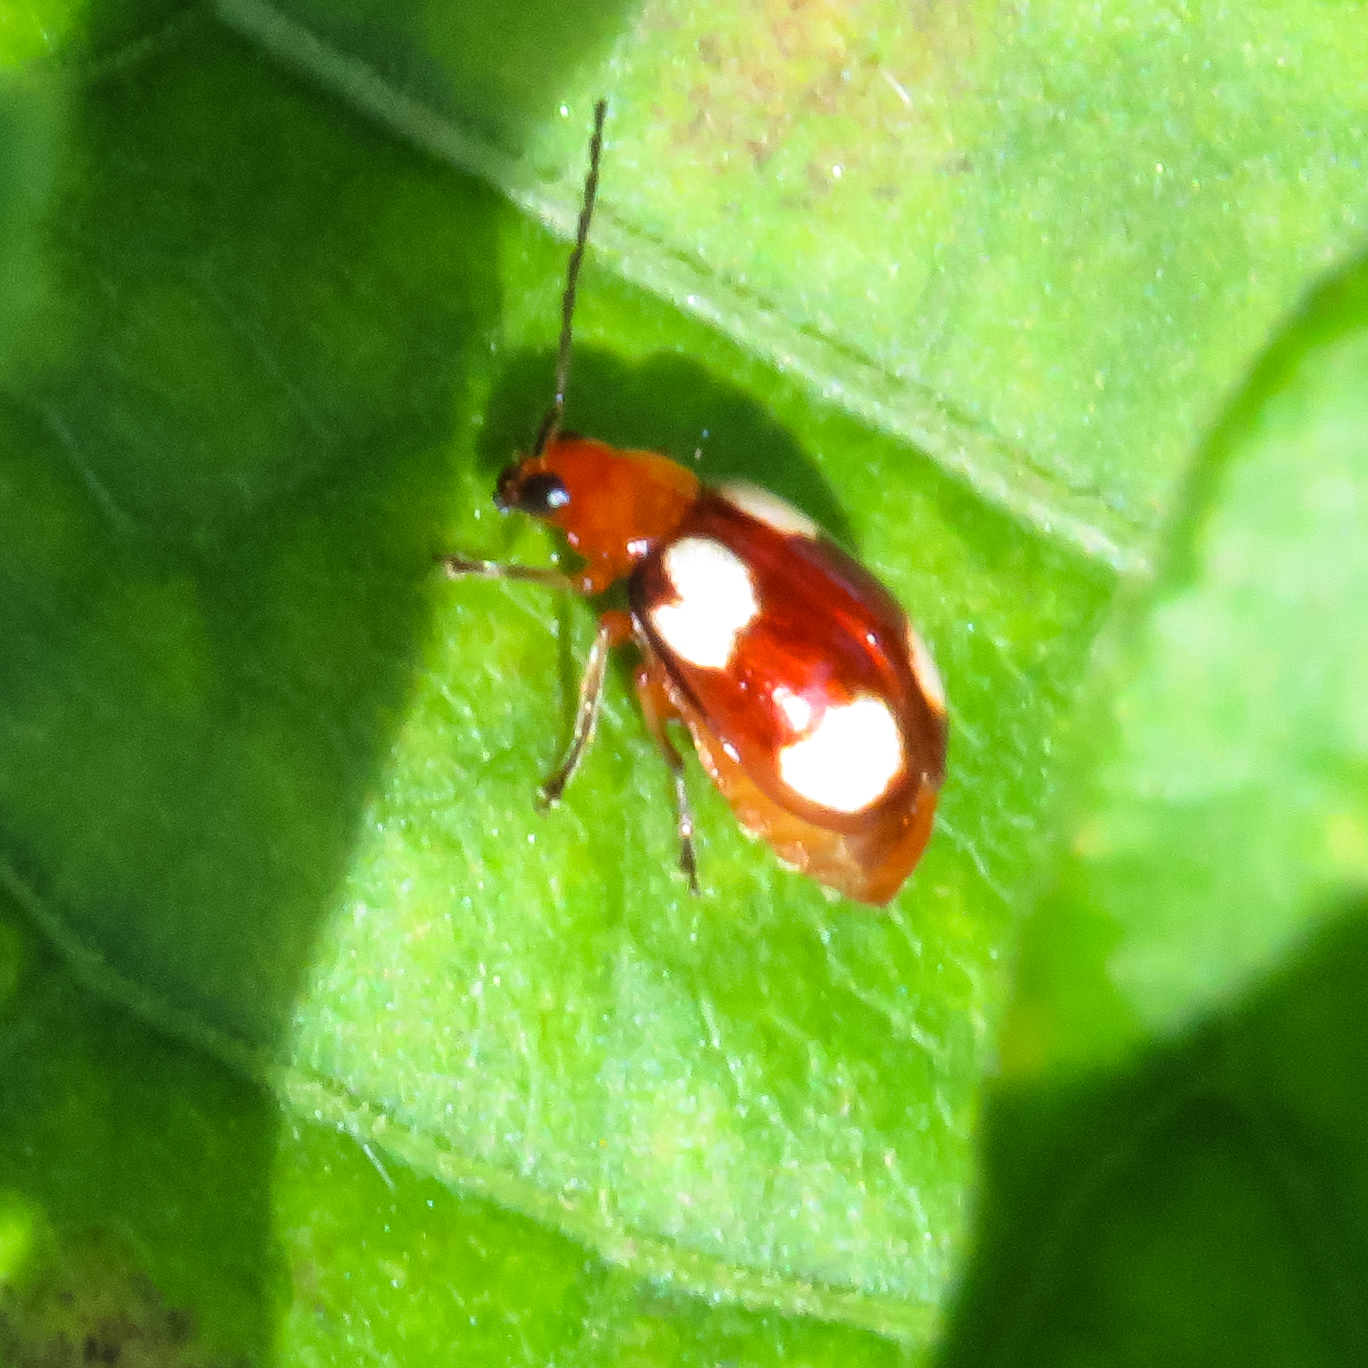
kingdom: Animalia
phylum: Arthropoda
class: Insecta
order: Coleoptera
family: Chrysomelidae
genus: Monolepta
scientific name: Monolepta signata
